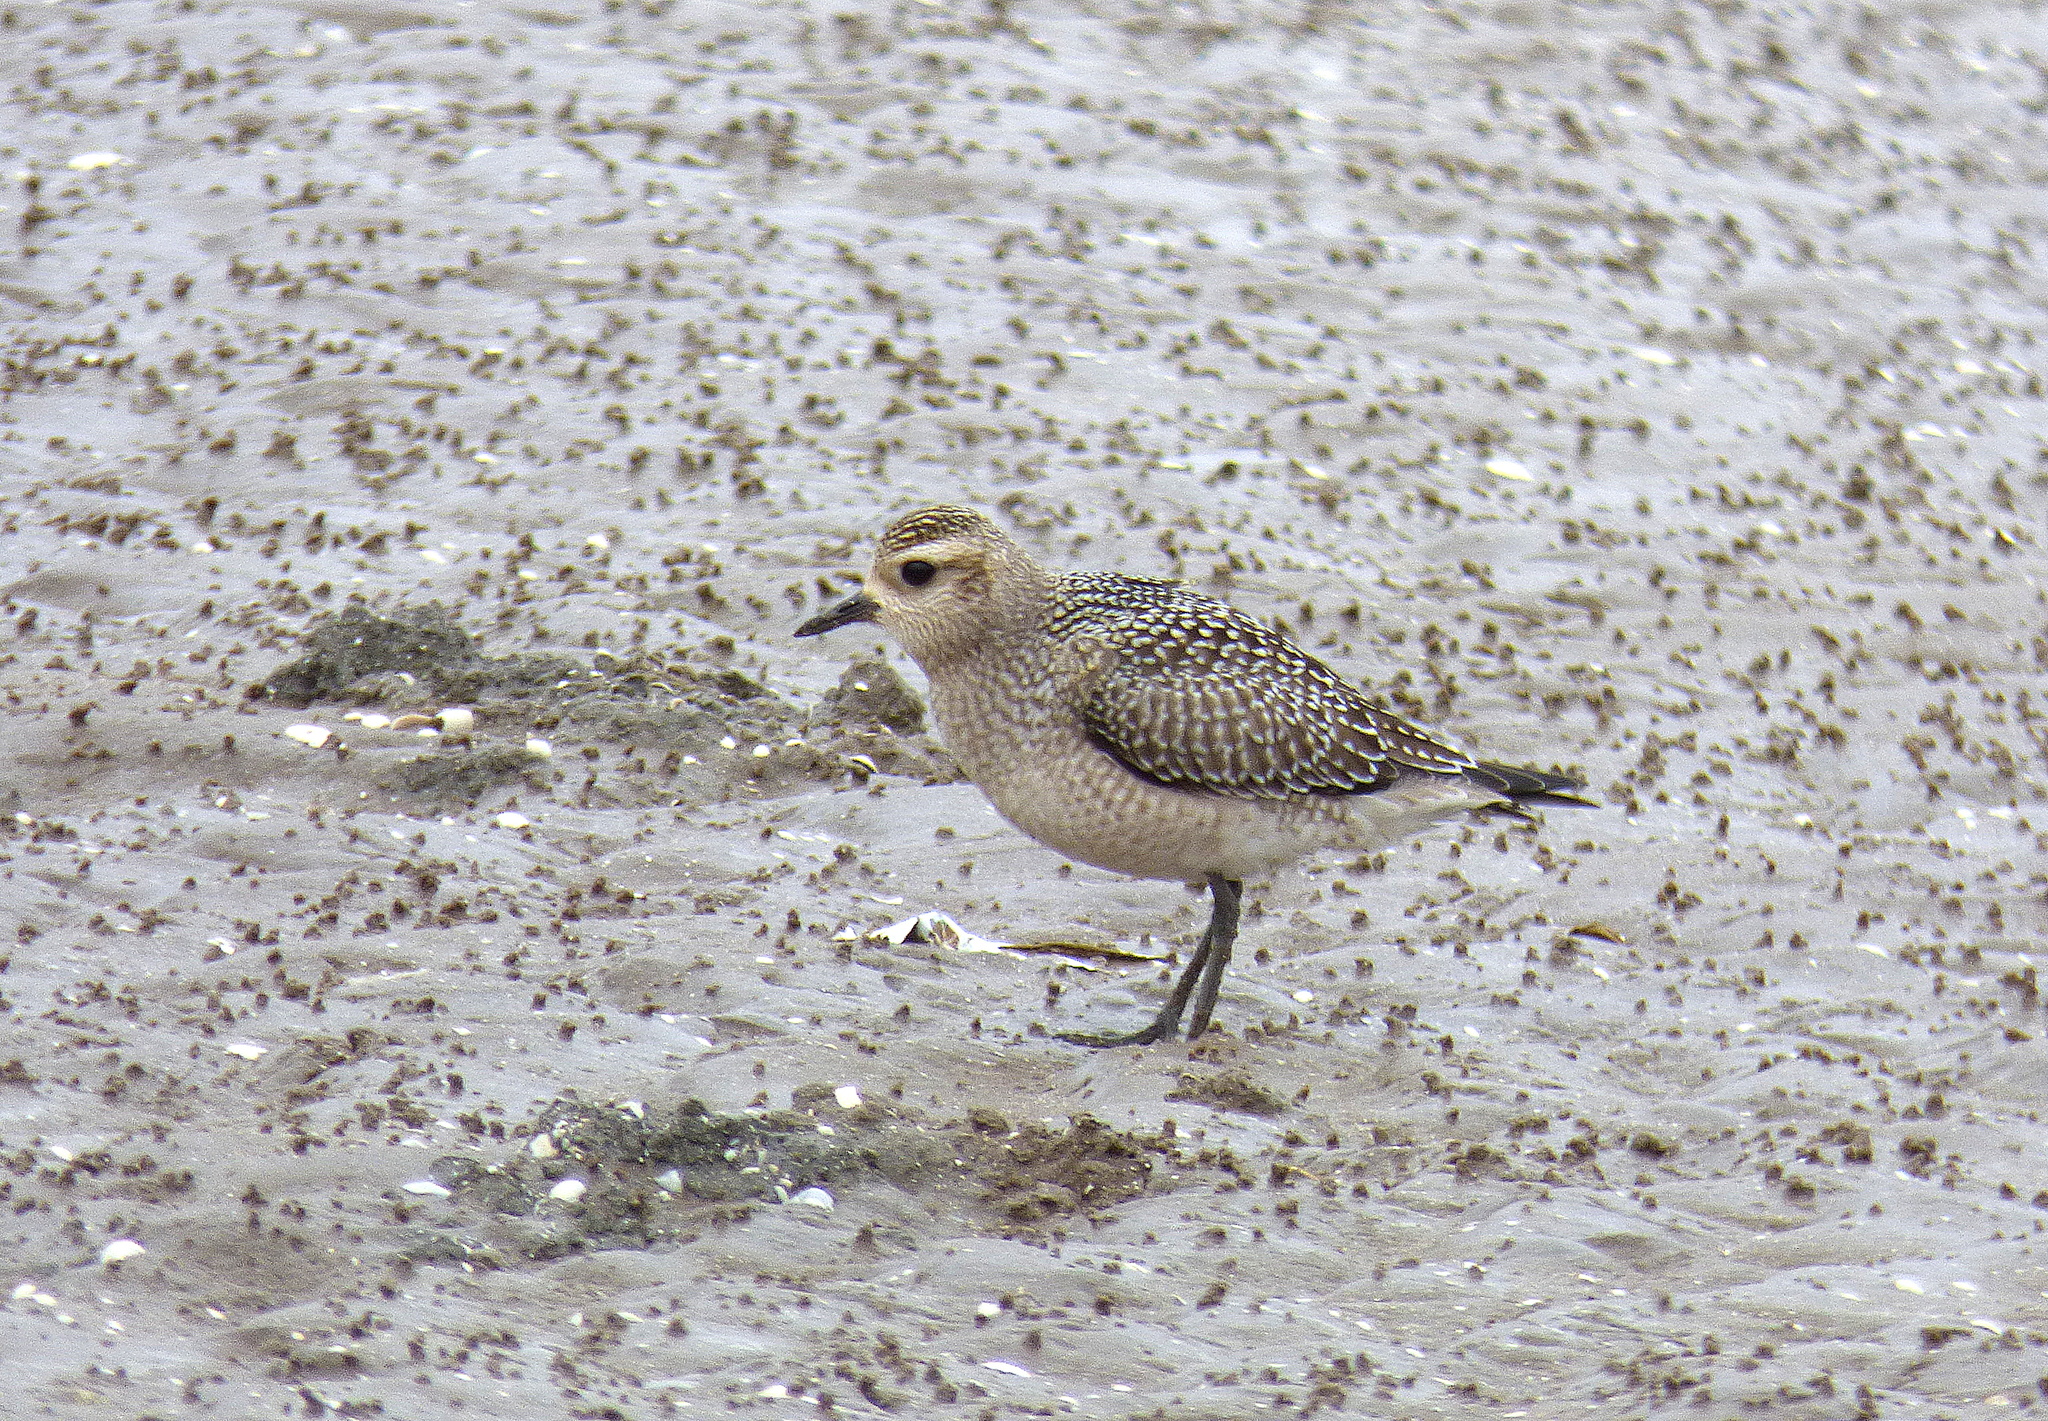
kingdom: Animalia
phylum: Chordata
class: Aves
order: Charadriiformes
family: Charadriidae
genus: Pluvialis
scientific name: Pluvialis dominica
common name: American golden plover
